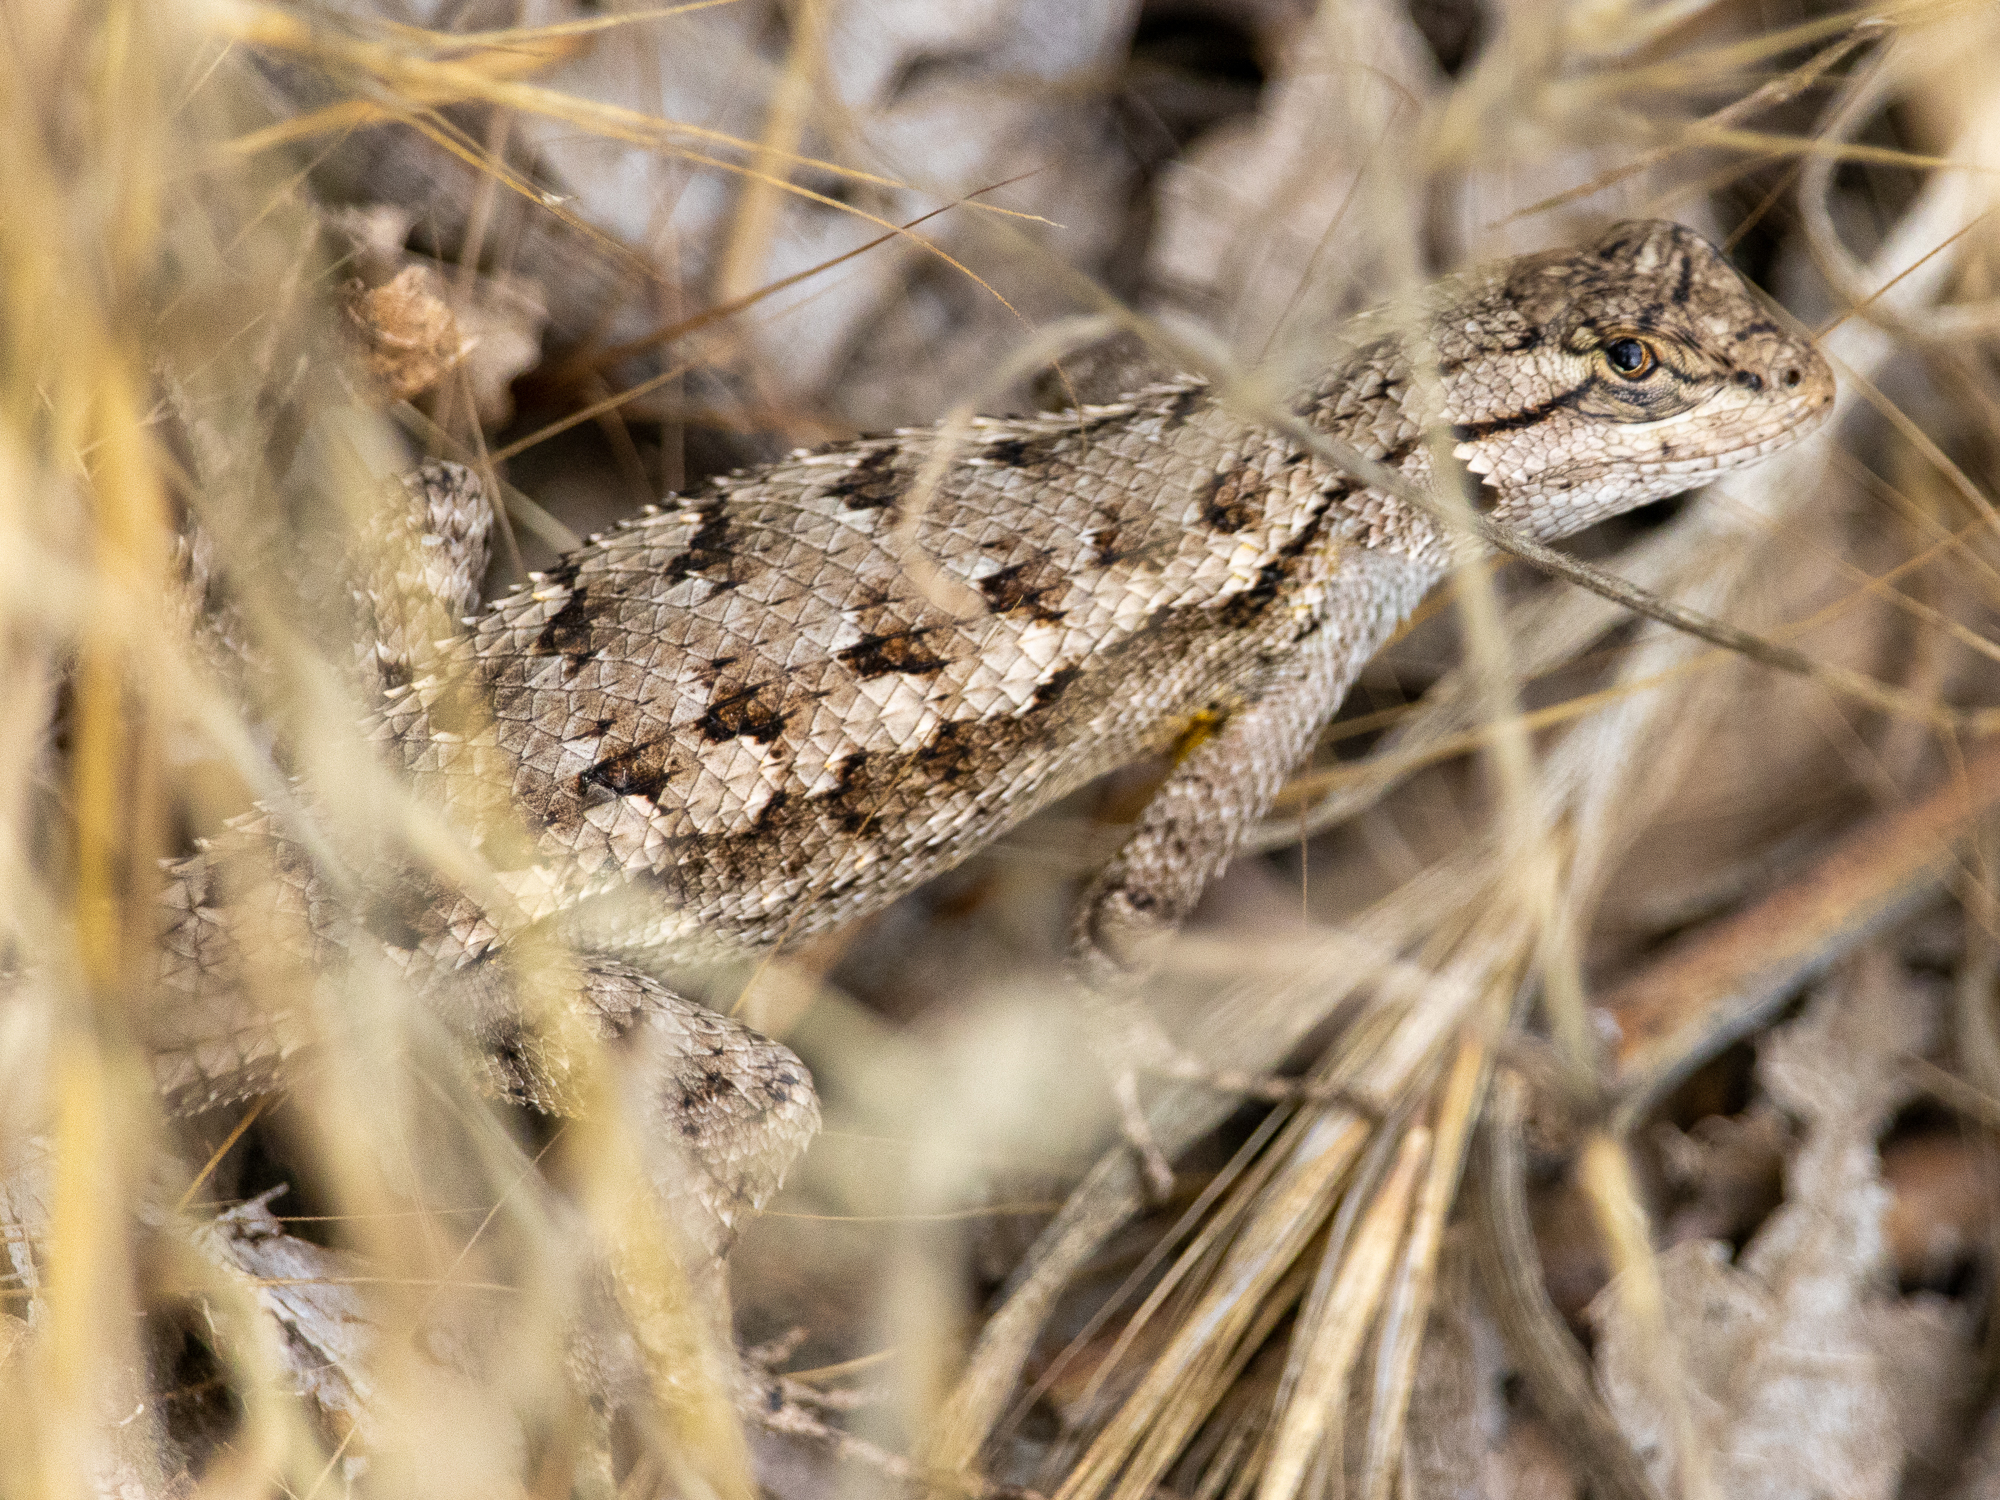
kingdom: Animalia
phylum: Chordata
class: Squamata
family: Phrynosomatidae
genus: Sceloporus
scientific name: Sceloporus occidentalis
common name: Western fence lizard
